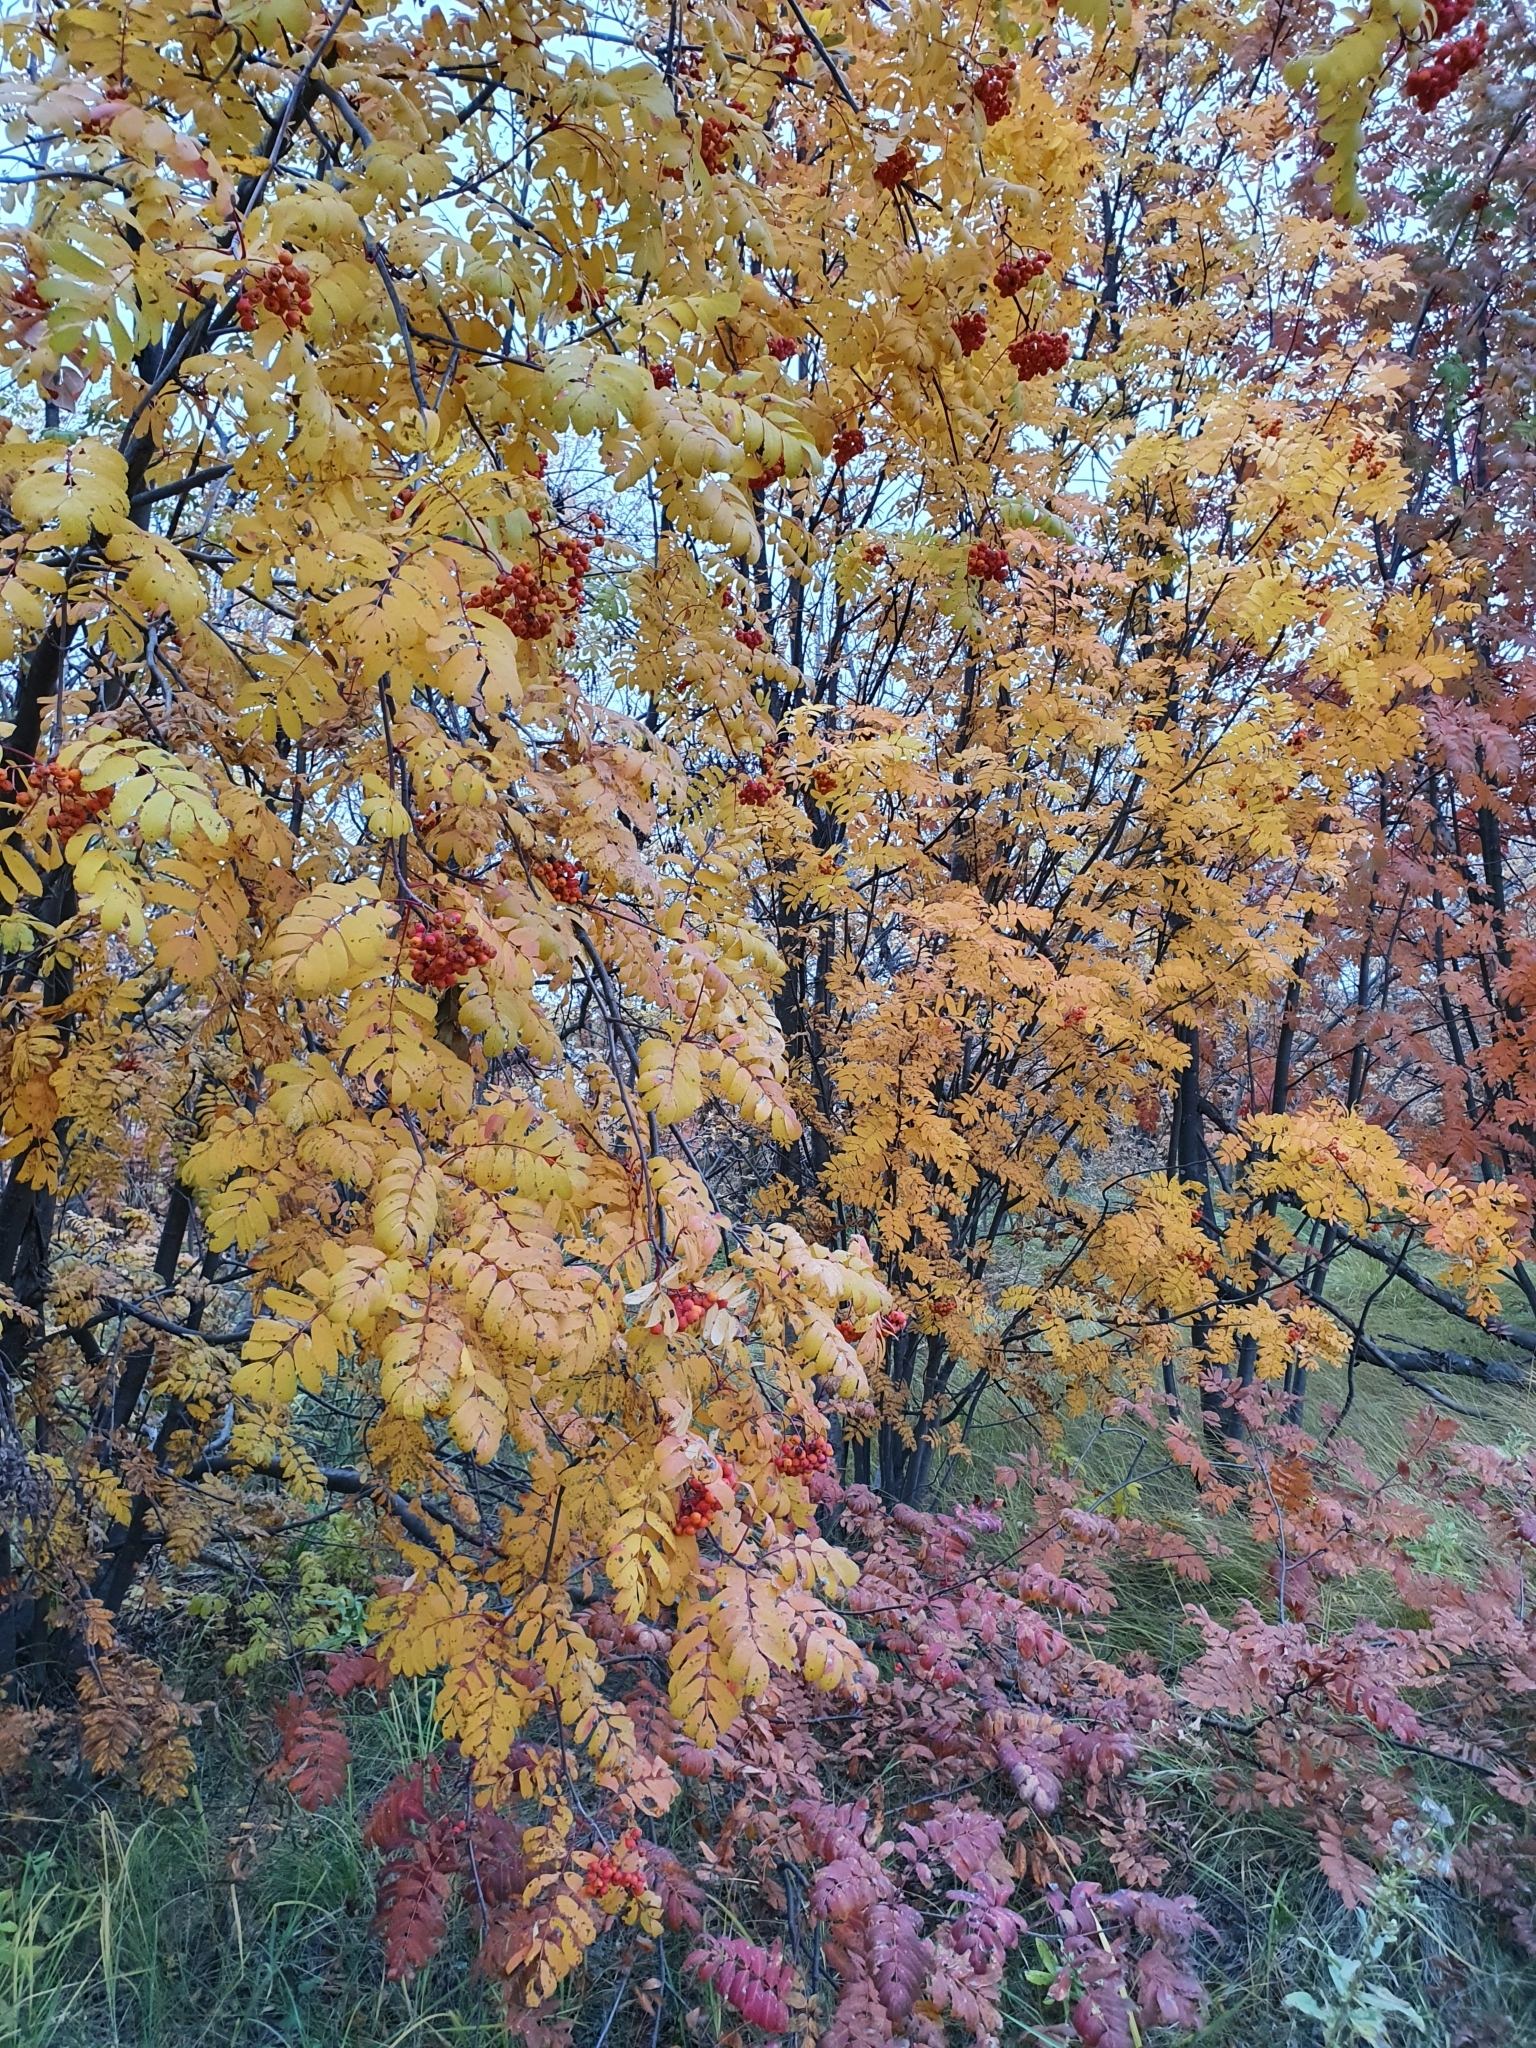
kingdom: Plantae
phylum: Tracheophyta
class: Magnoliopsida
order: Rosales
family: Rosaceae
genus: Sorbus
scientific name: Sorbus aucuparia
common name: Rowan
